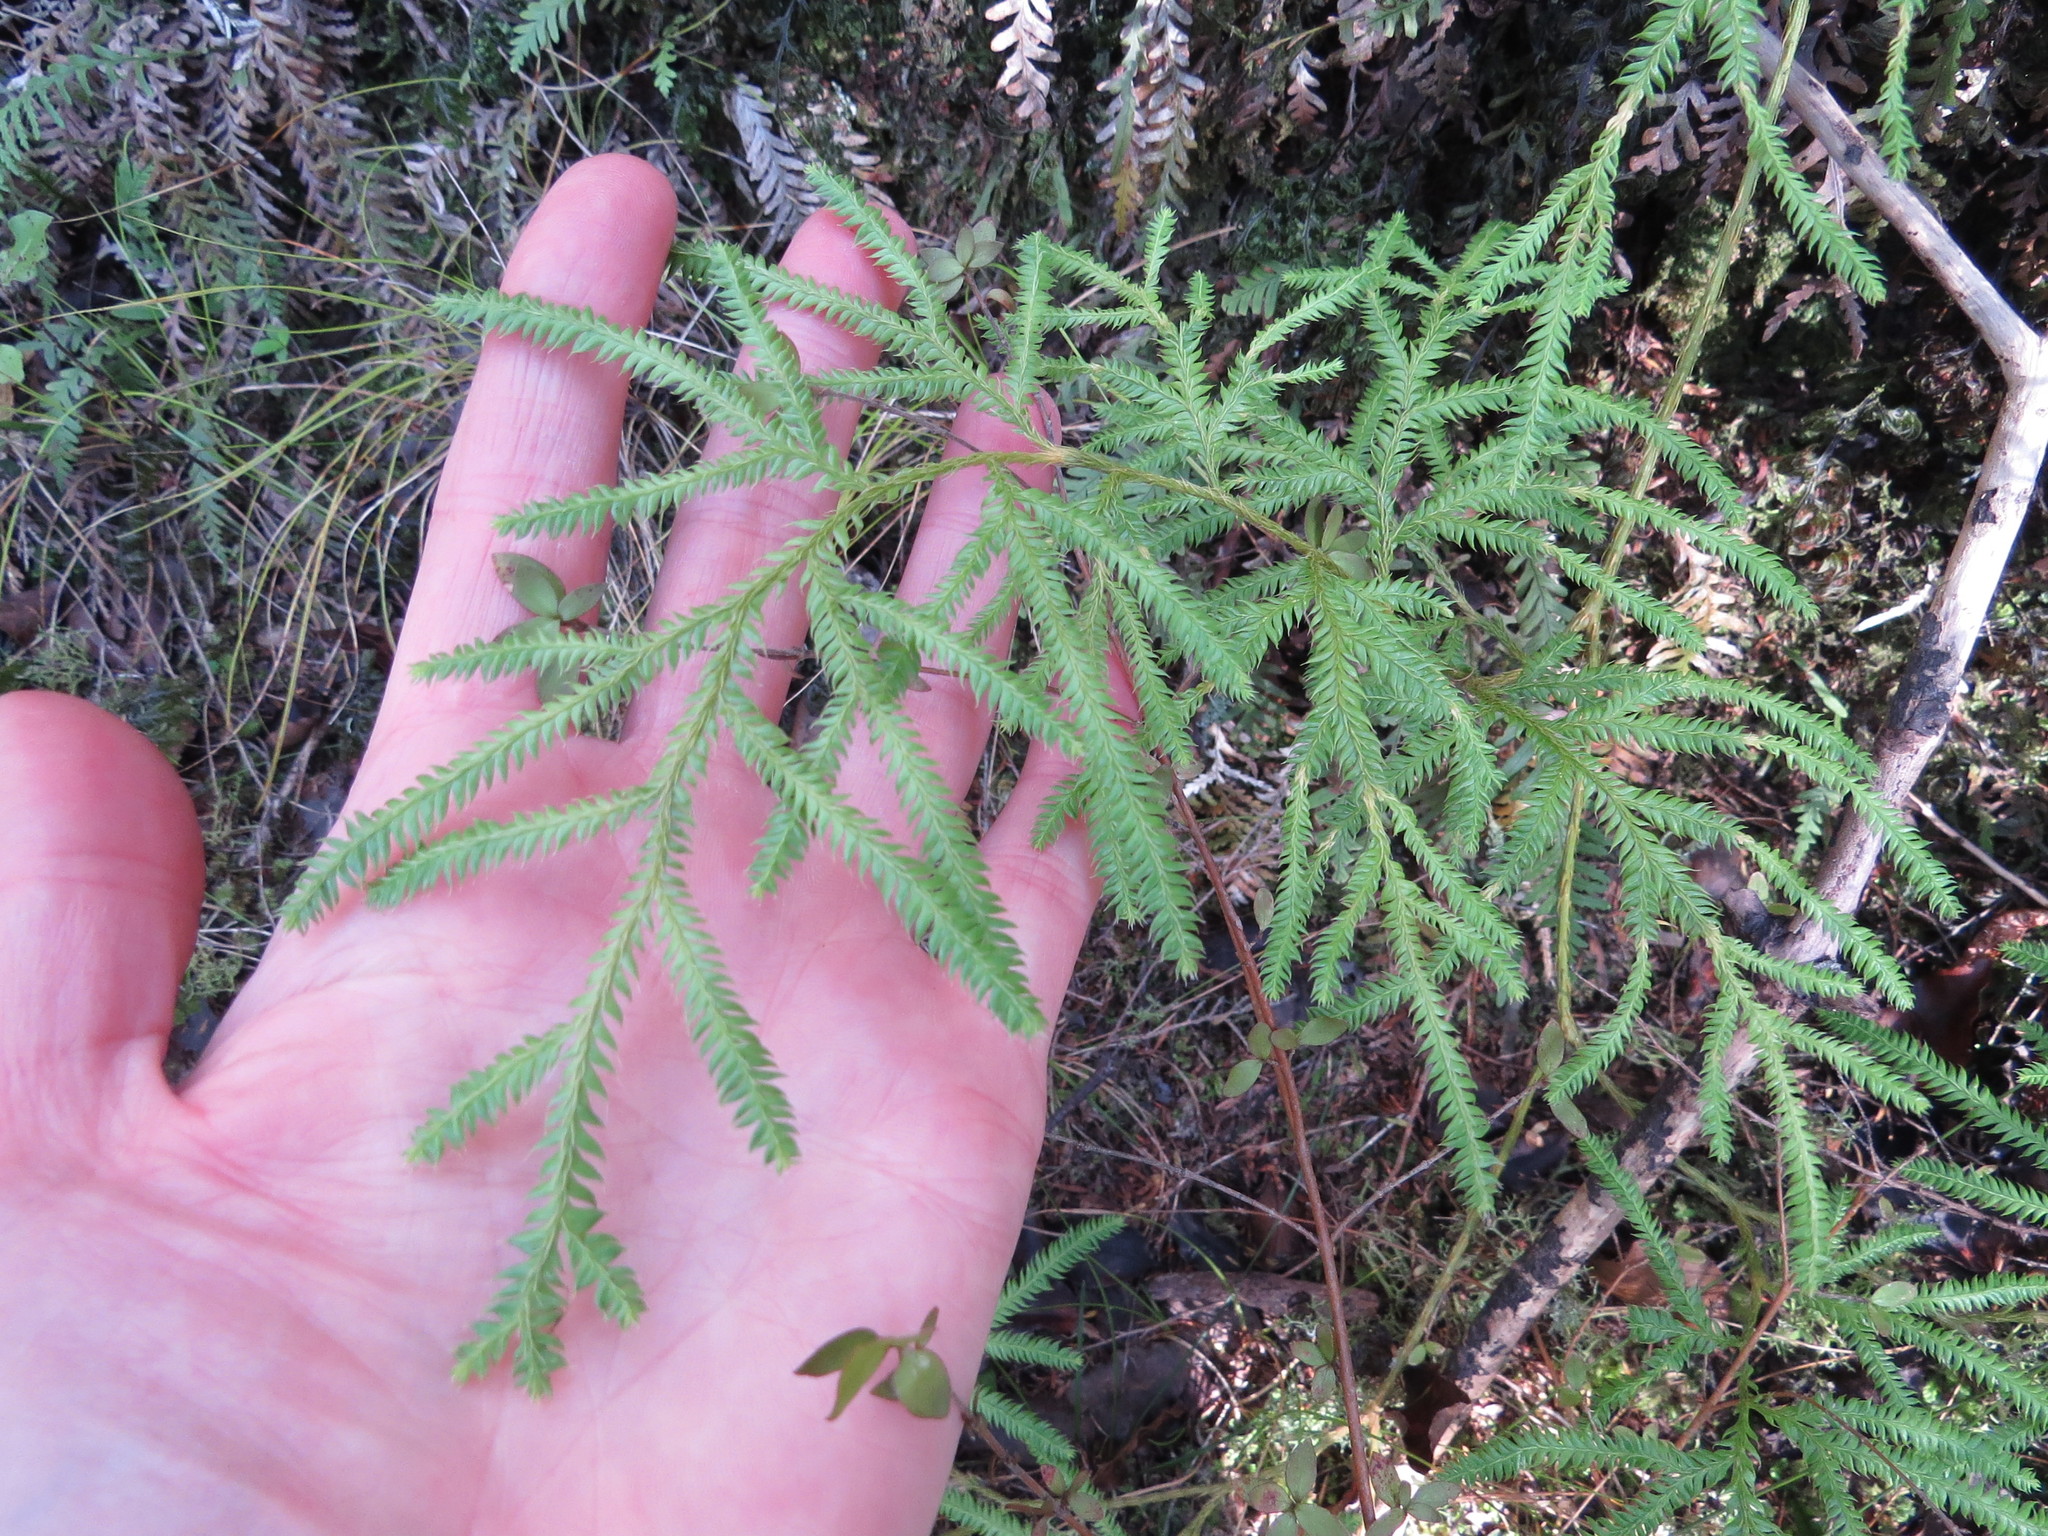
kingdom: Plantae
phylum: Tracheophyta
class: Lycopodiopsida
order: Lycopodiales
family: Lycopodiaceae
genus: Lycopodium
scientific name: Lycopodium volubile
